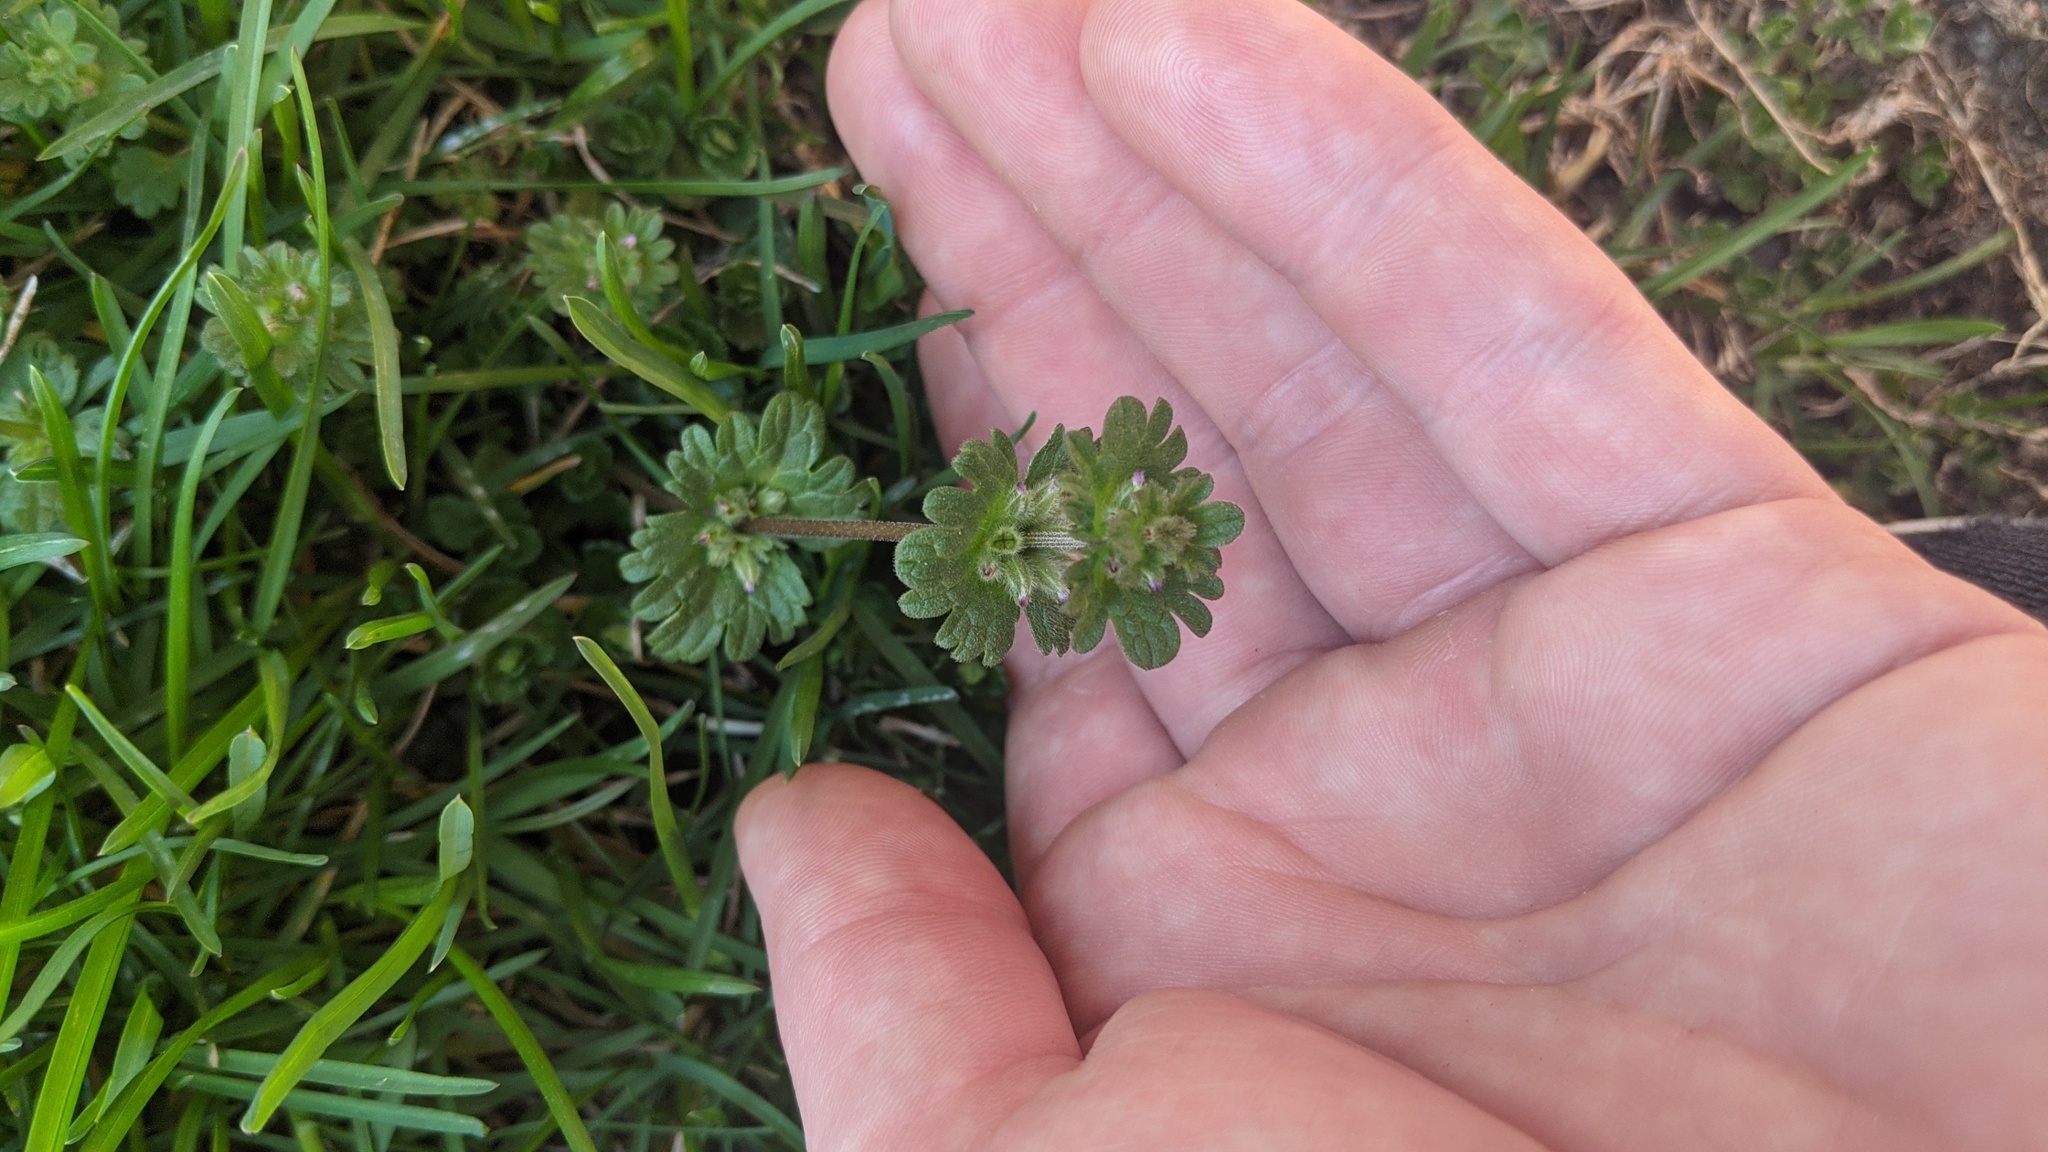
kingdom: Plantae
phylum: Tracheophyta
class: Magnoliopsida
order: Lamiales
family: Lamiaceae
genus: Lamium
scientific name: Lamium amplexicaule
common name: Henbit dead-nettle
